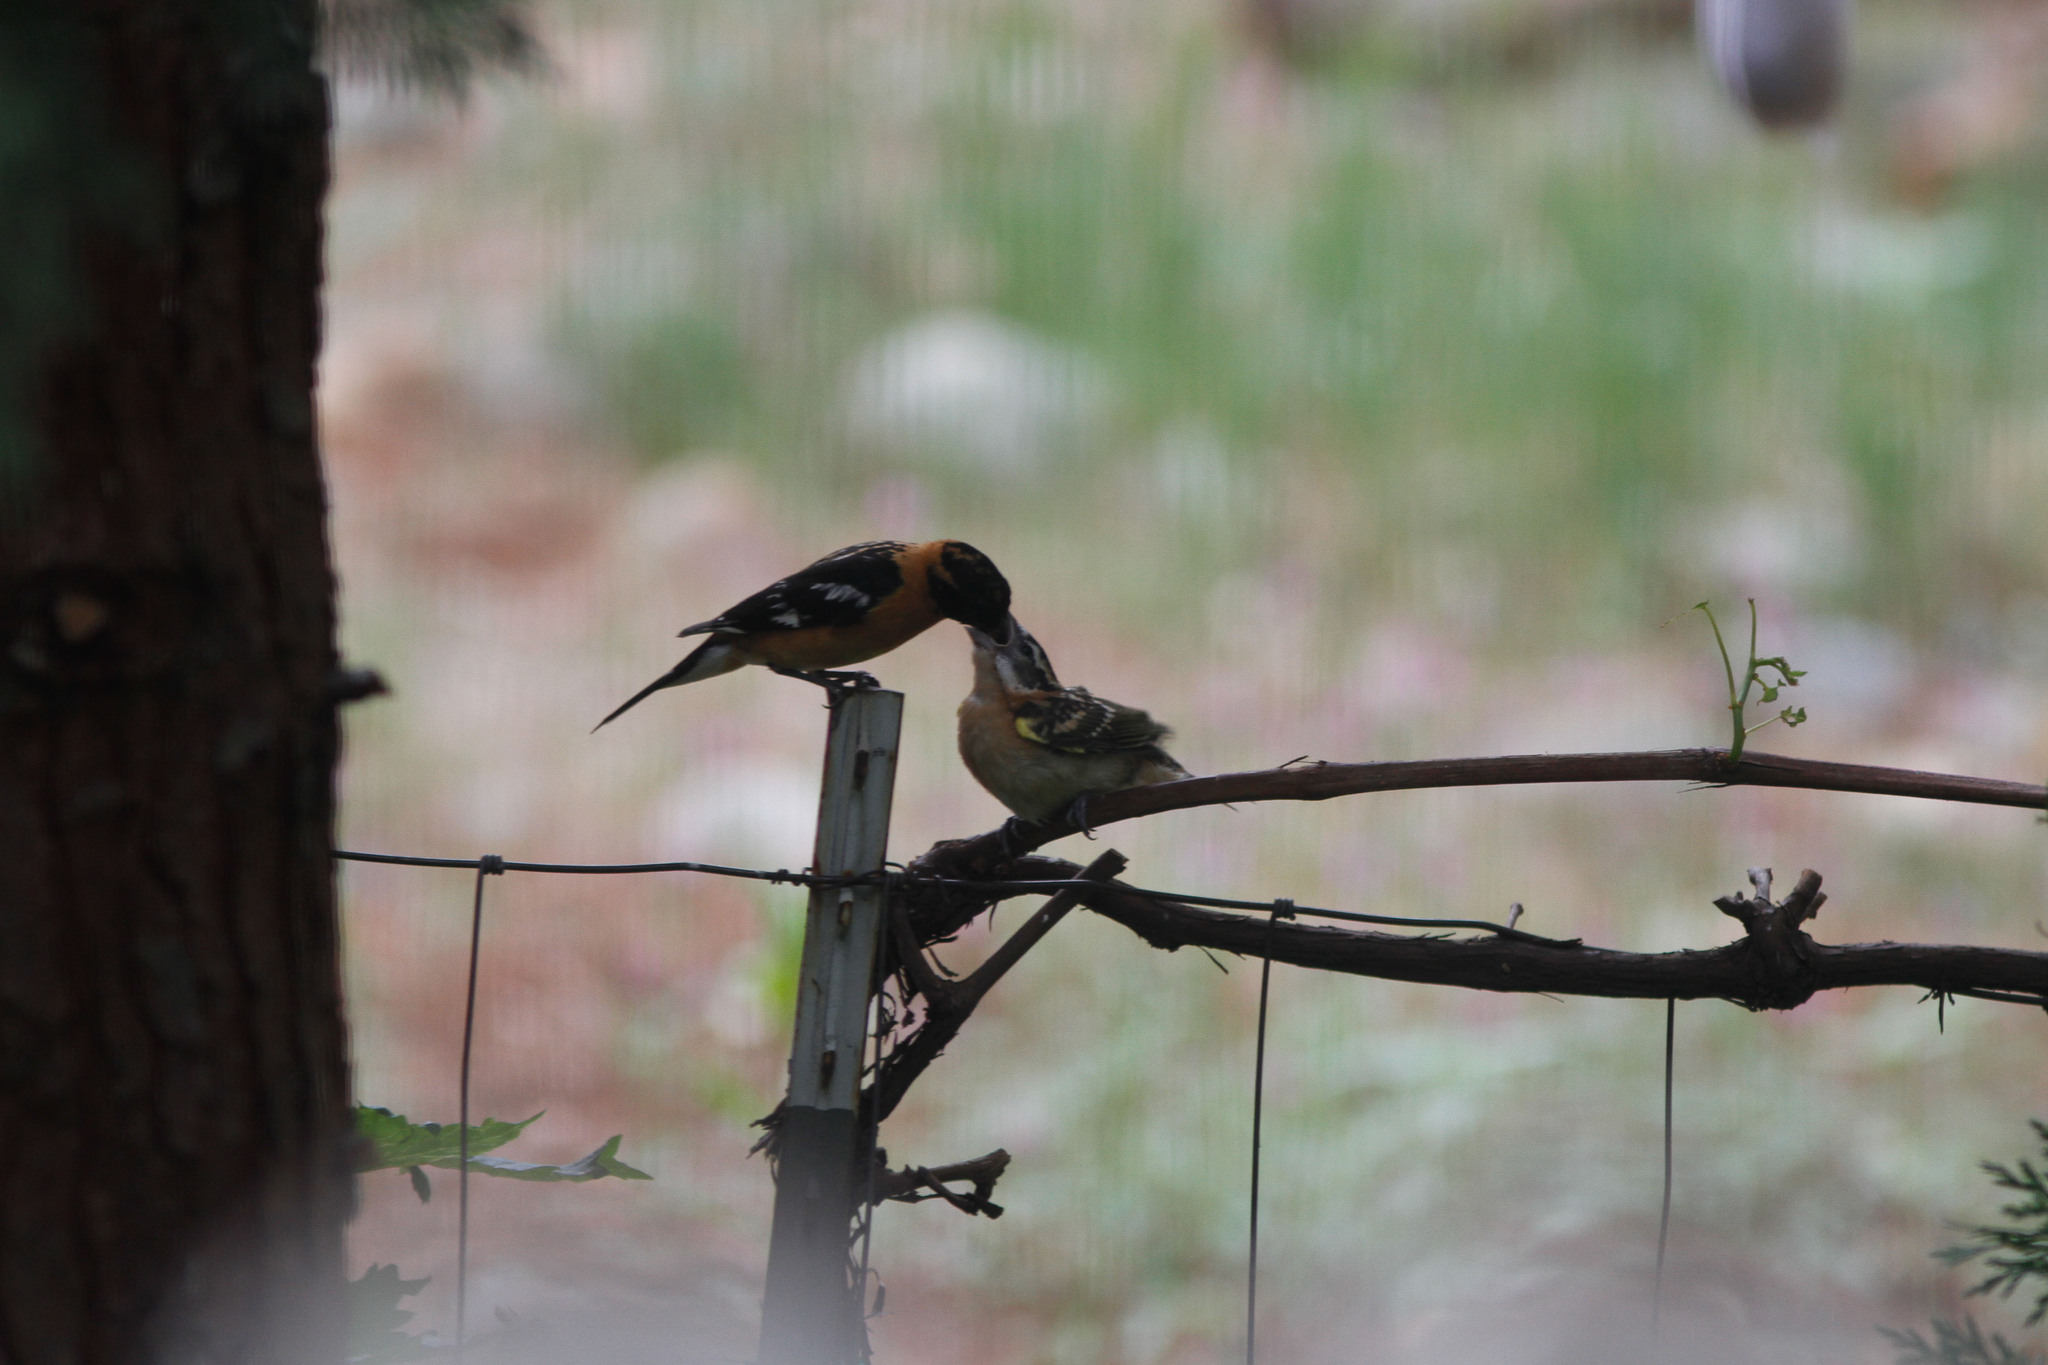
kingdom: Animalia
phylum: Chordata
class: Aves
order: Passeriformes
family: Cardinalidae
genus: Pheucticus
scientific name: Pheucticus melanocephalus
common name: Black-headed grosbeak
